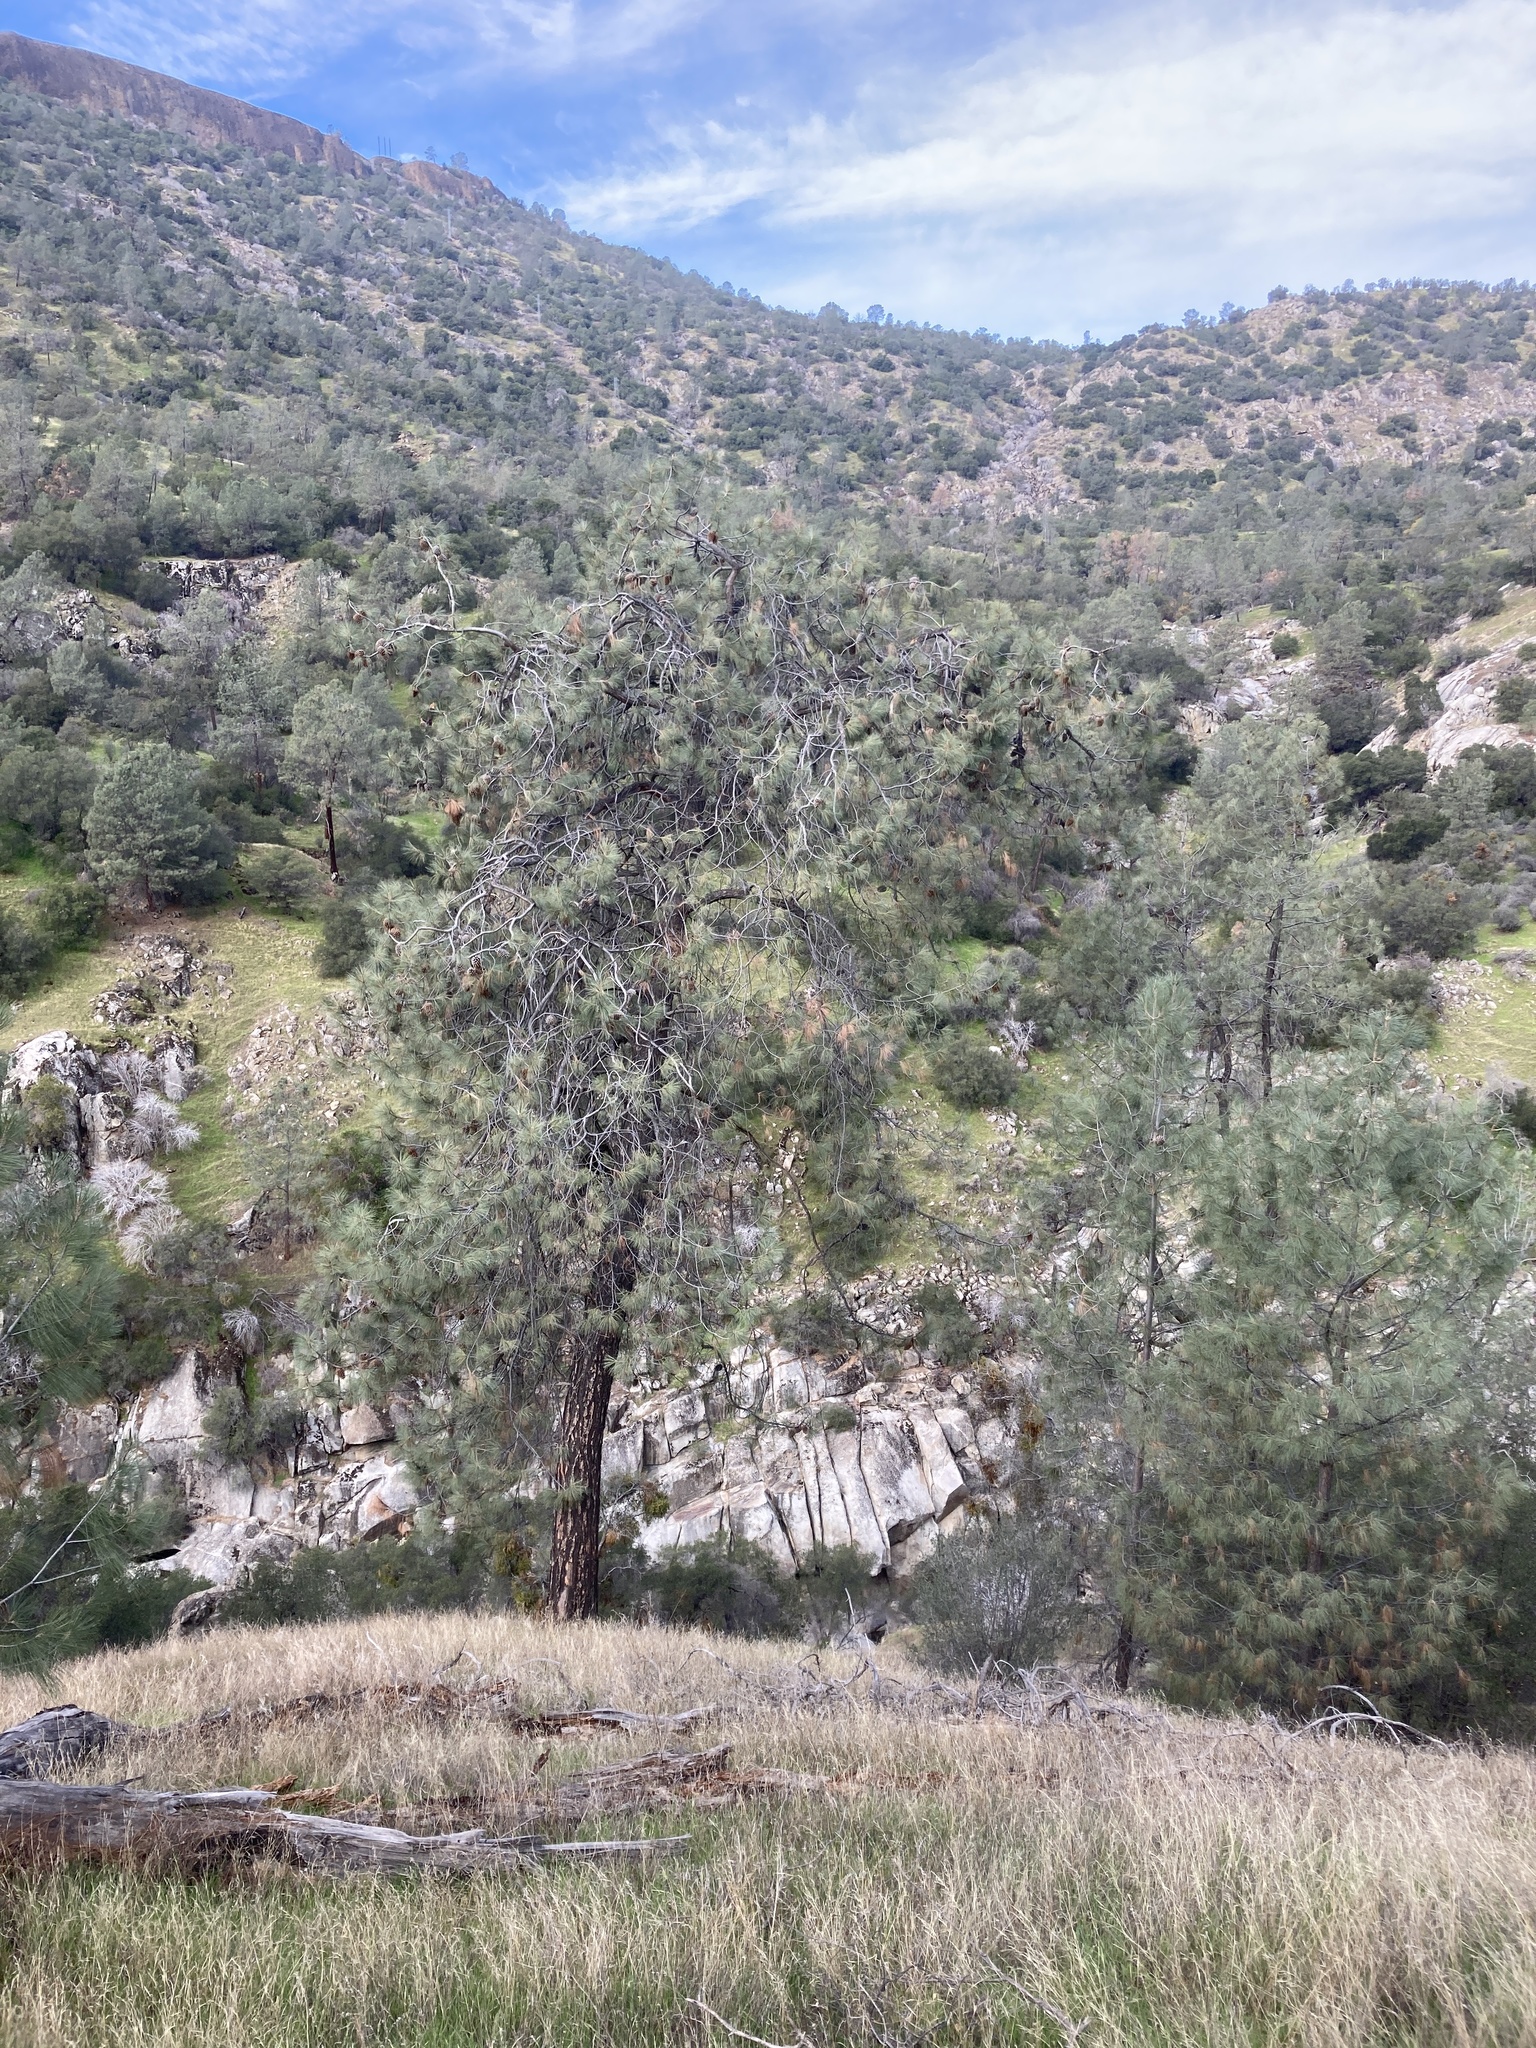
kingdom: Plantae
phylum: Tracheophyta
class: Pinopsida
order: Pinales
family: Pinaceae
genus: Pinus
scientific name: Pinus sabiniana
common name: Bull pine
